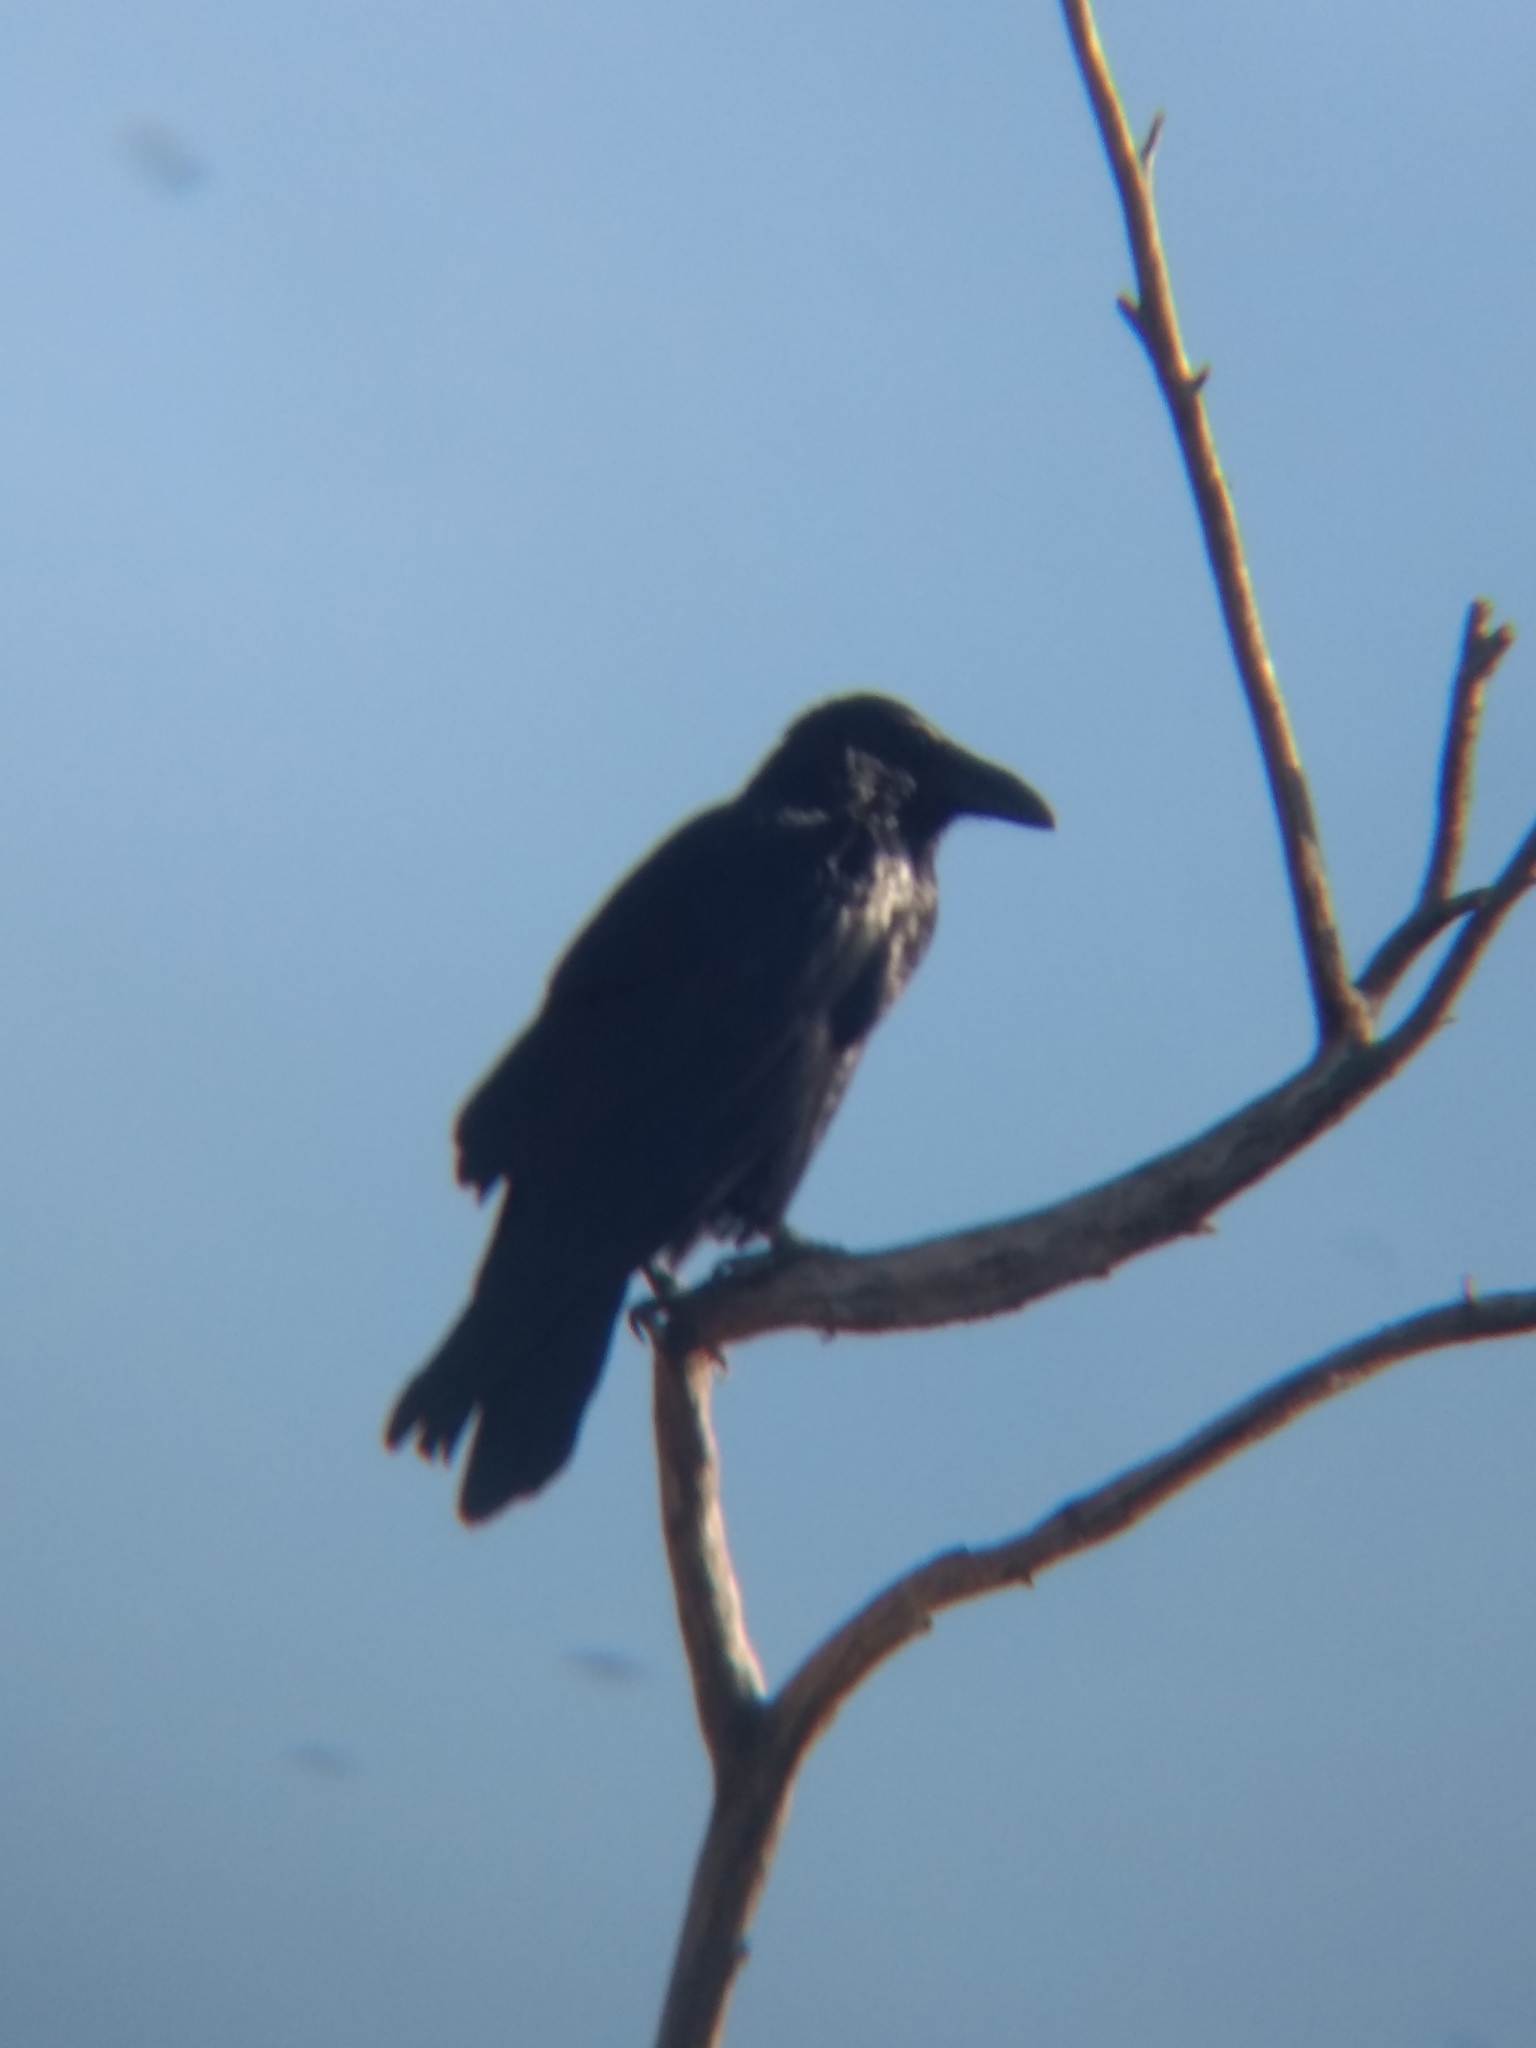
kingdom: Animalia
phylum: Chordata
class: Aves
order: Passeriformes
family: Corvidae
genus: Corvus
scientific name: Corvus corax
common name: Common raven
